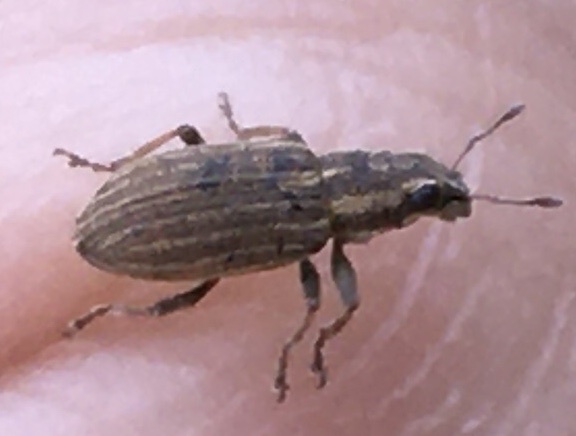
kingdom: Animalia
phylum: Arthropoda
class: Insecta
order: Coleoptera
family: Curculionidae
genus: Sitona
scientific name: Sitona lineatus
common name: Weevil
